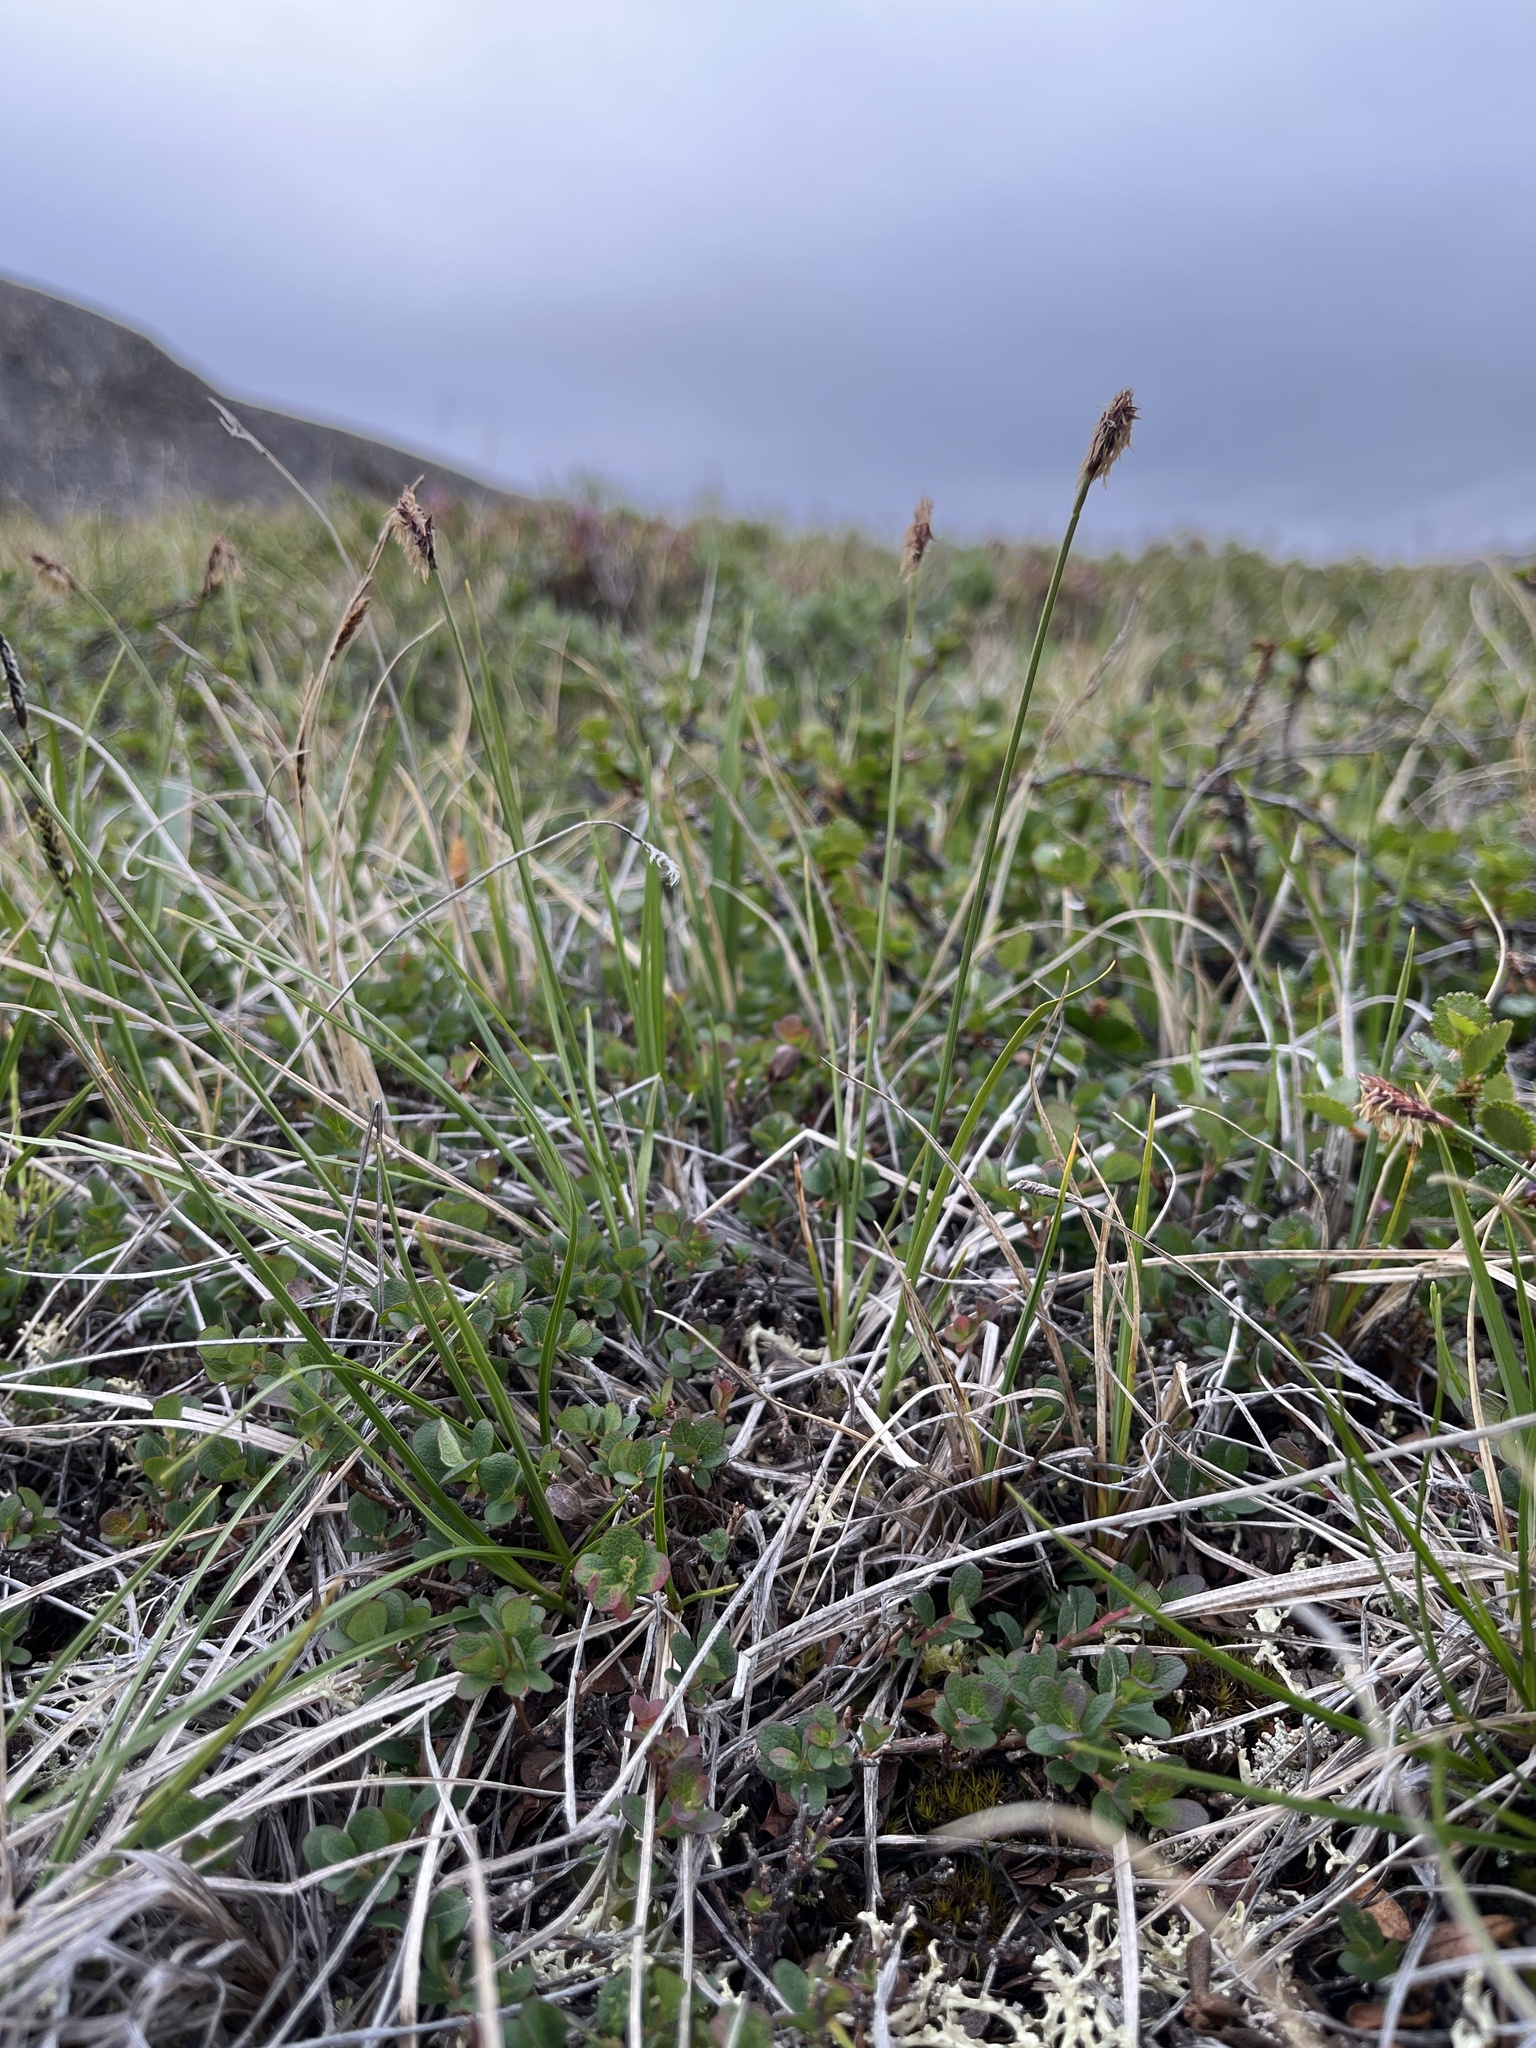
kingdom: Plantae
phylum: Tracheophyta
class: Liliopsida
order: Poales
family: Cyperaceae
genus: Carex
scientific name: Carex scirpoidea
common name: Canada single-spike sedge
